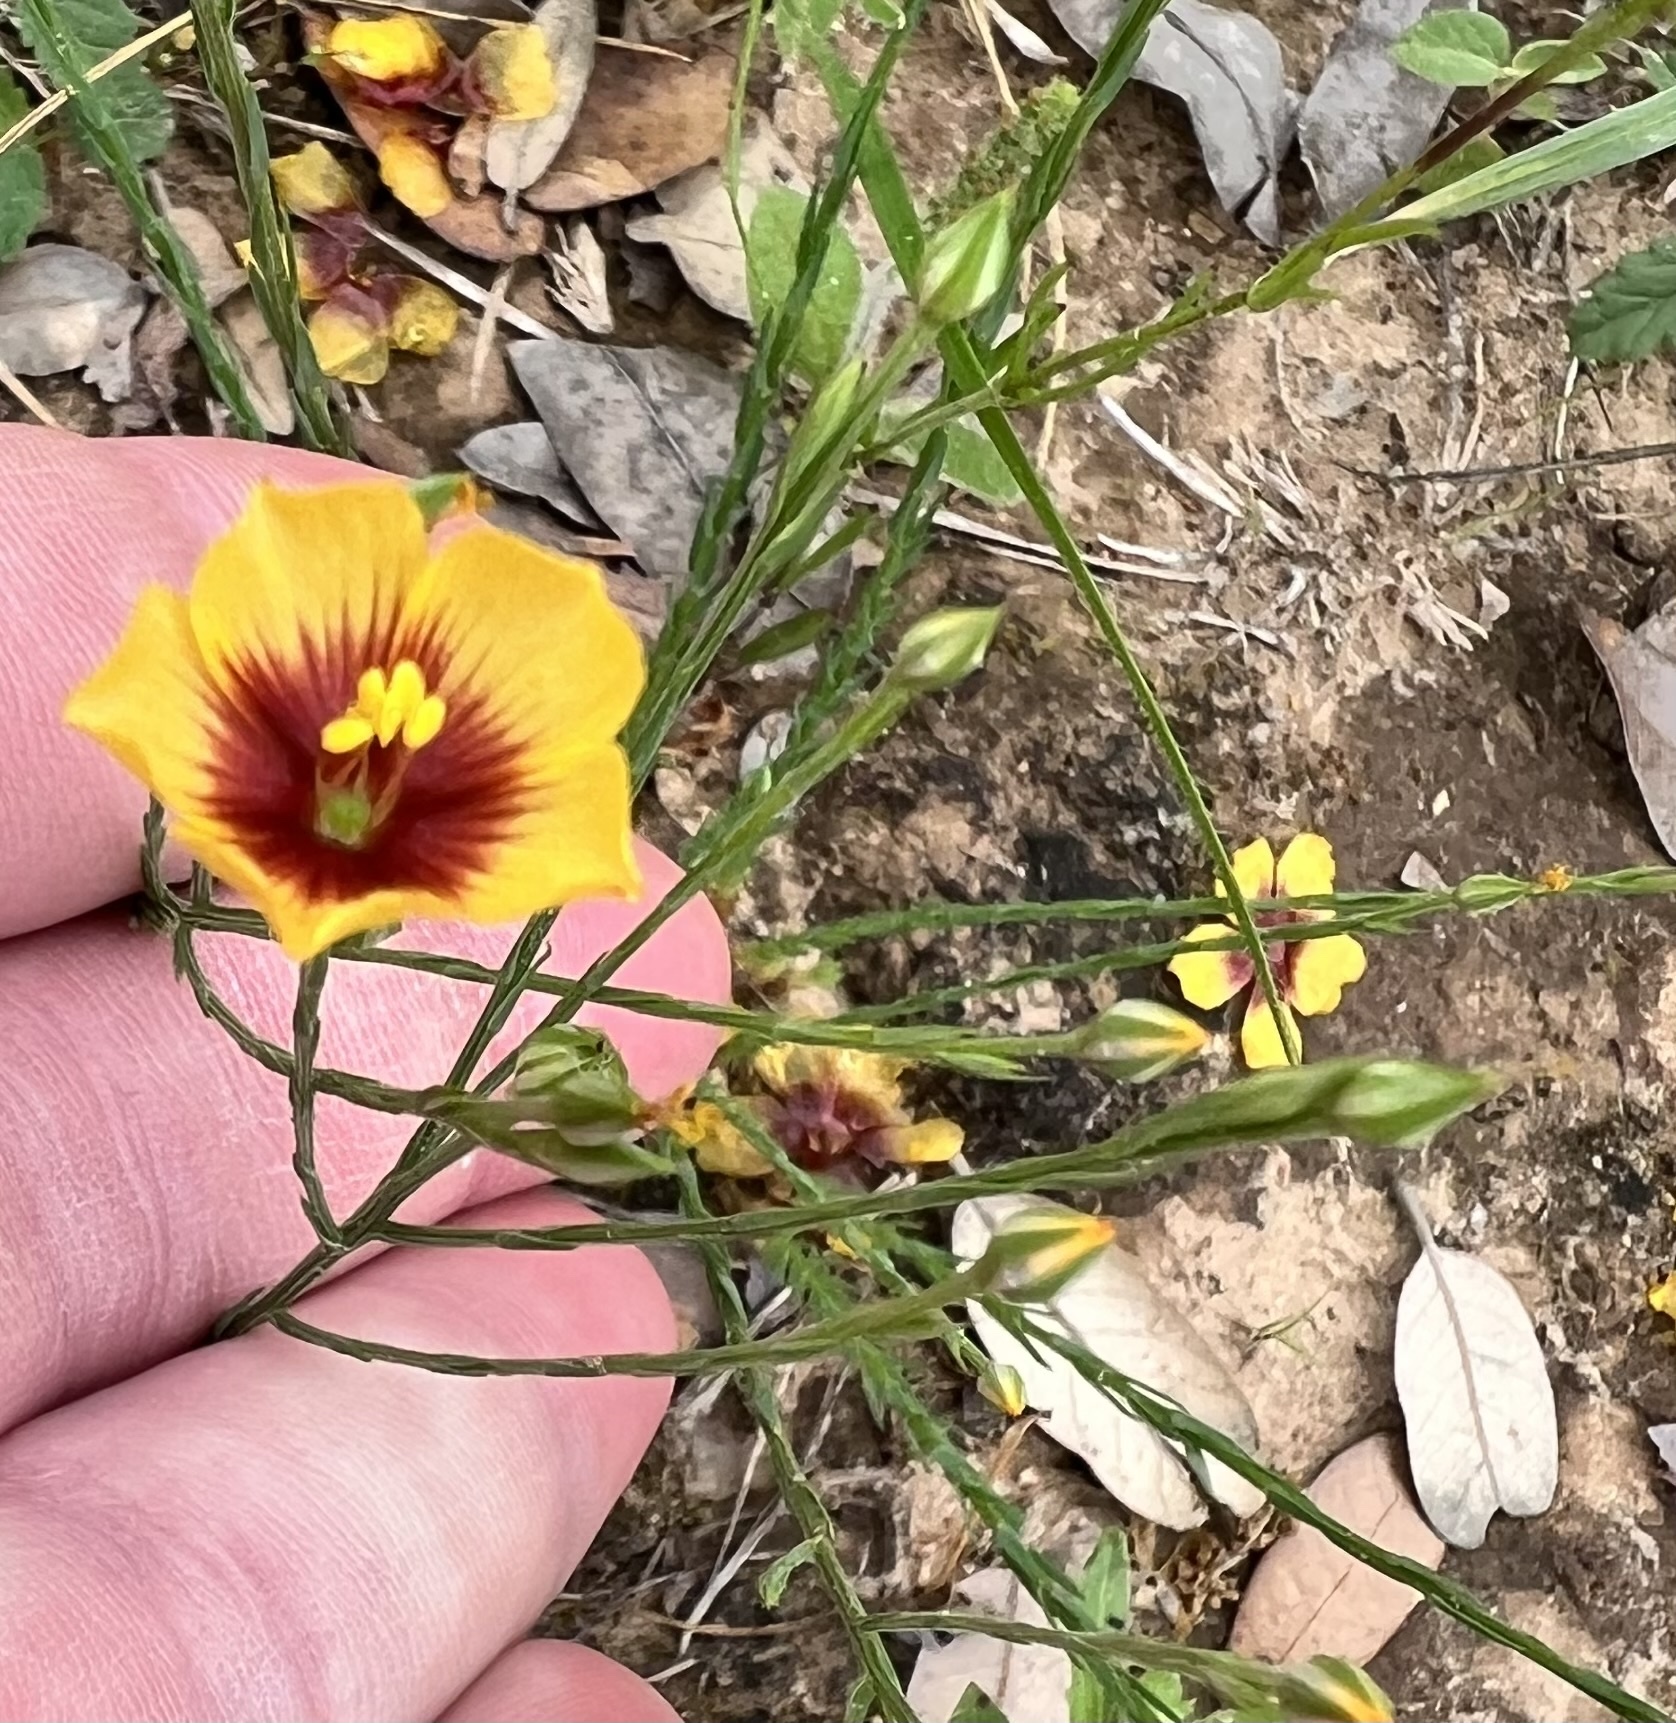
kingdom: Plantae
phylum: Tracheophyta
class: Magnoliopsida
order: Malpighiales
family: Linaceae
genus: Linum
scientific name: Linum hudsonioides
